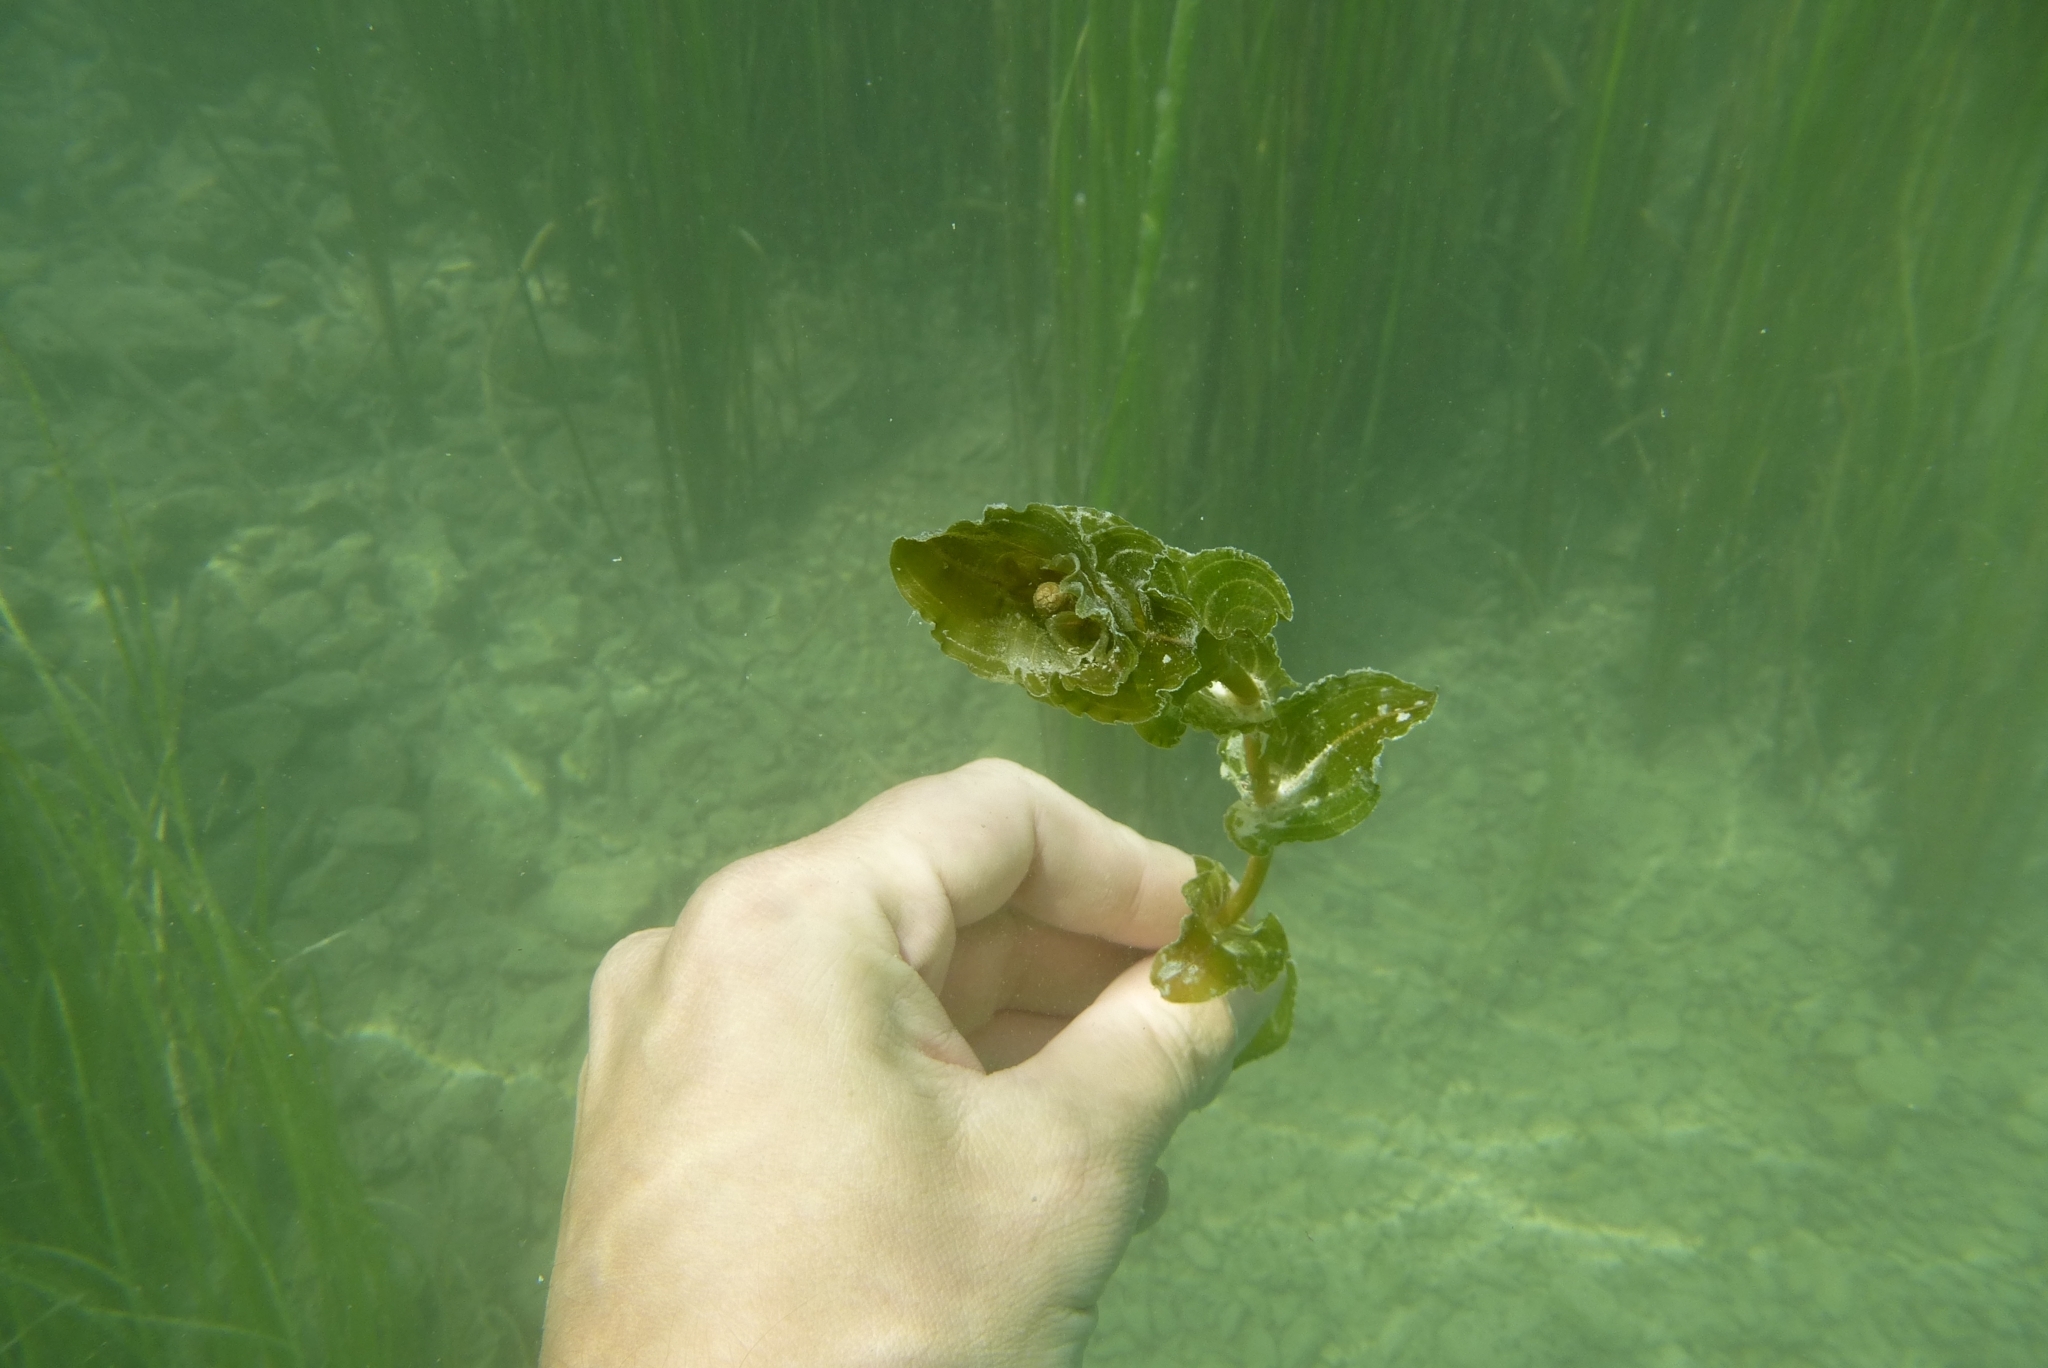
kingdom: Plantae
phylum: Tracheophyta
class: Liliopsida
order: Alismatales
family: Potamogetonaceae
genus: Potamogeton
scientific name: Potamogeton perfoliatus
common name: Perfoliate pondweed
